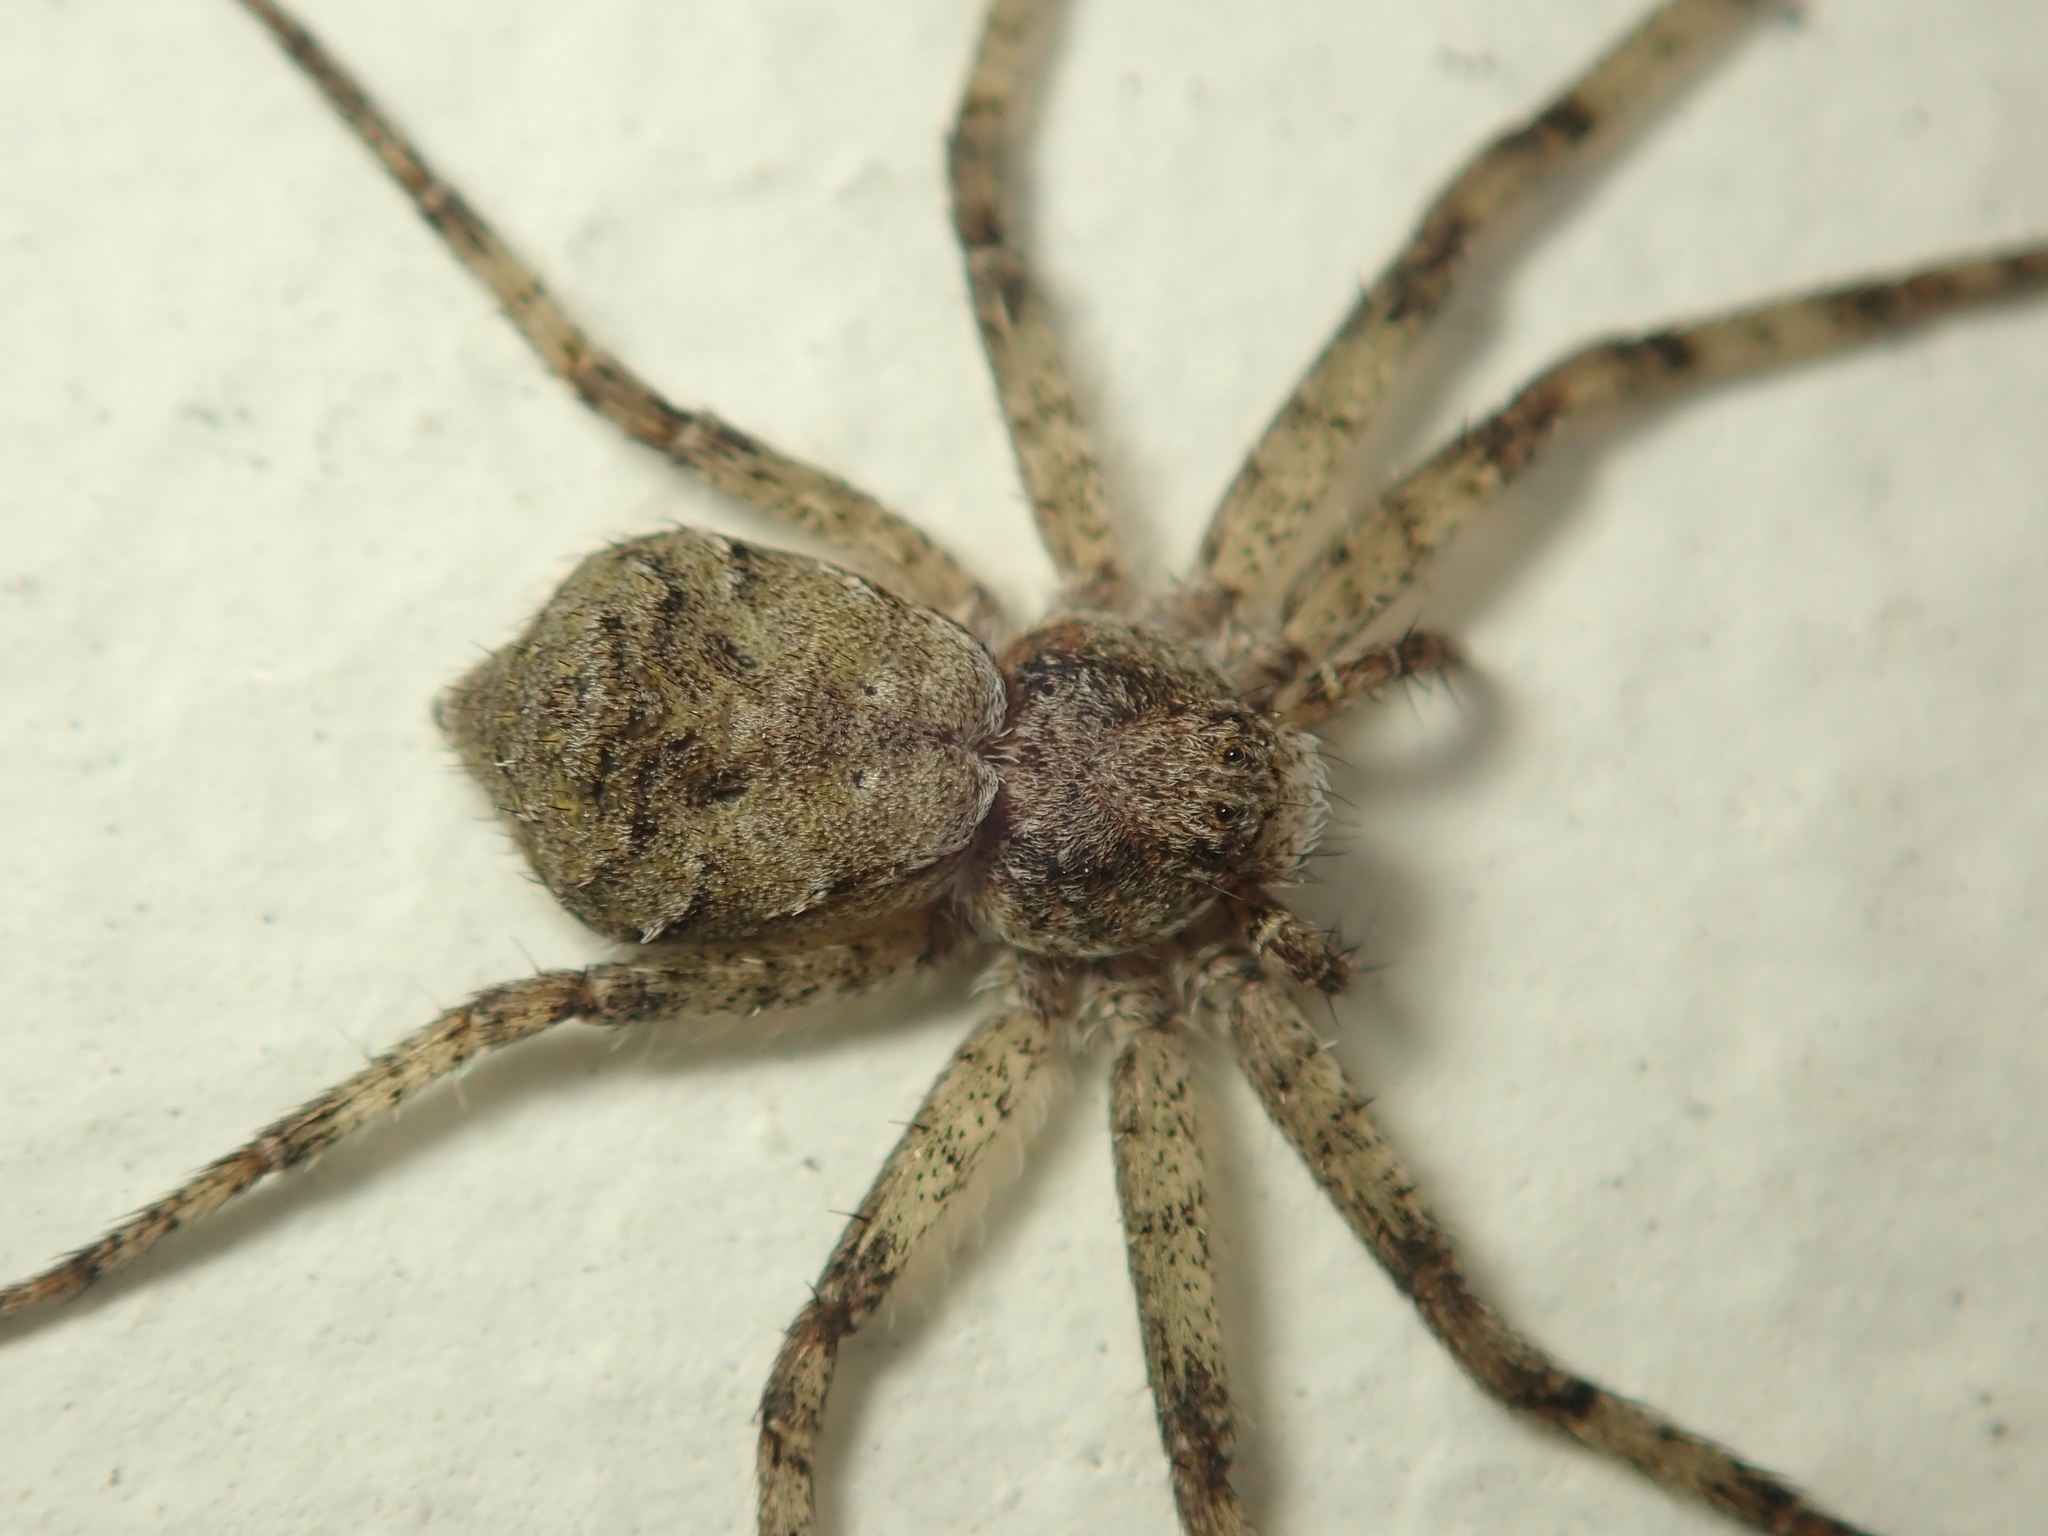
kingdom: Animalia
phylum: Arthropoda
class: Arachnida
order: Araneae
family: Philodromidae
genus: Philodromus
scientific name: Philodromus margaritatus
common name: Lichen running-spider
